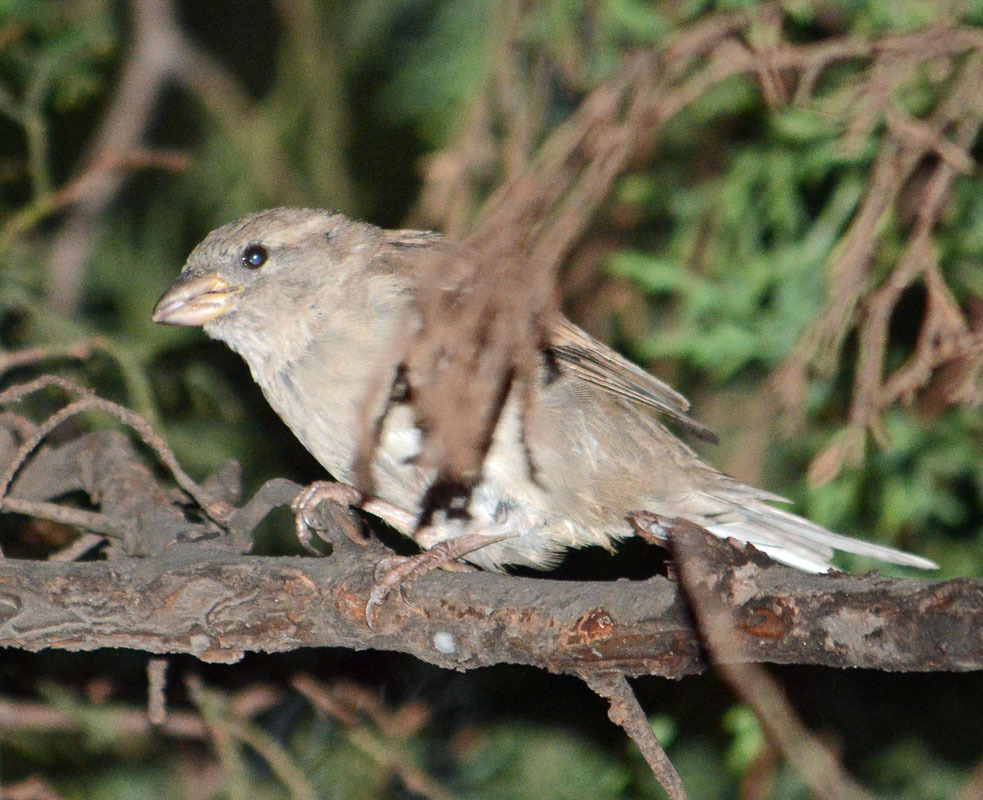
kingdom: Animalia
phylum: Chordata
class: Aves
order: Passeriformes
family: Passeridae
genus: Passer
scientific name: Passer domesticus
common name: House sparrow
